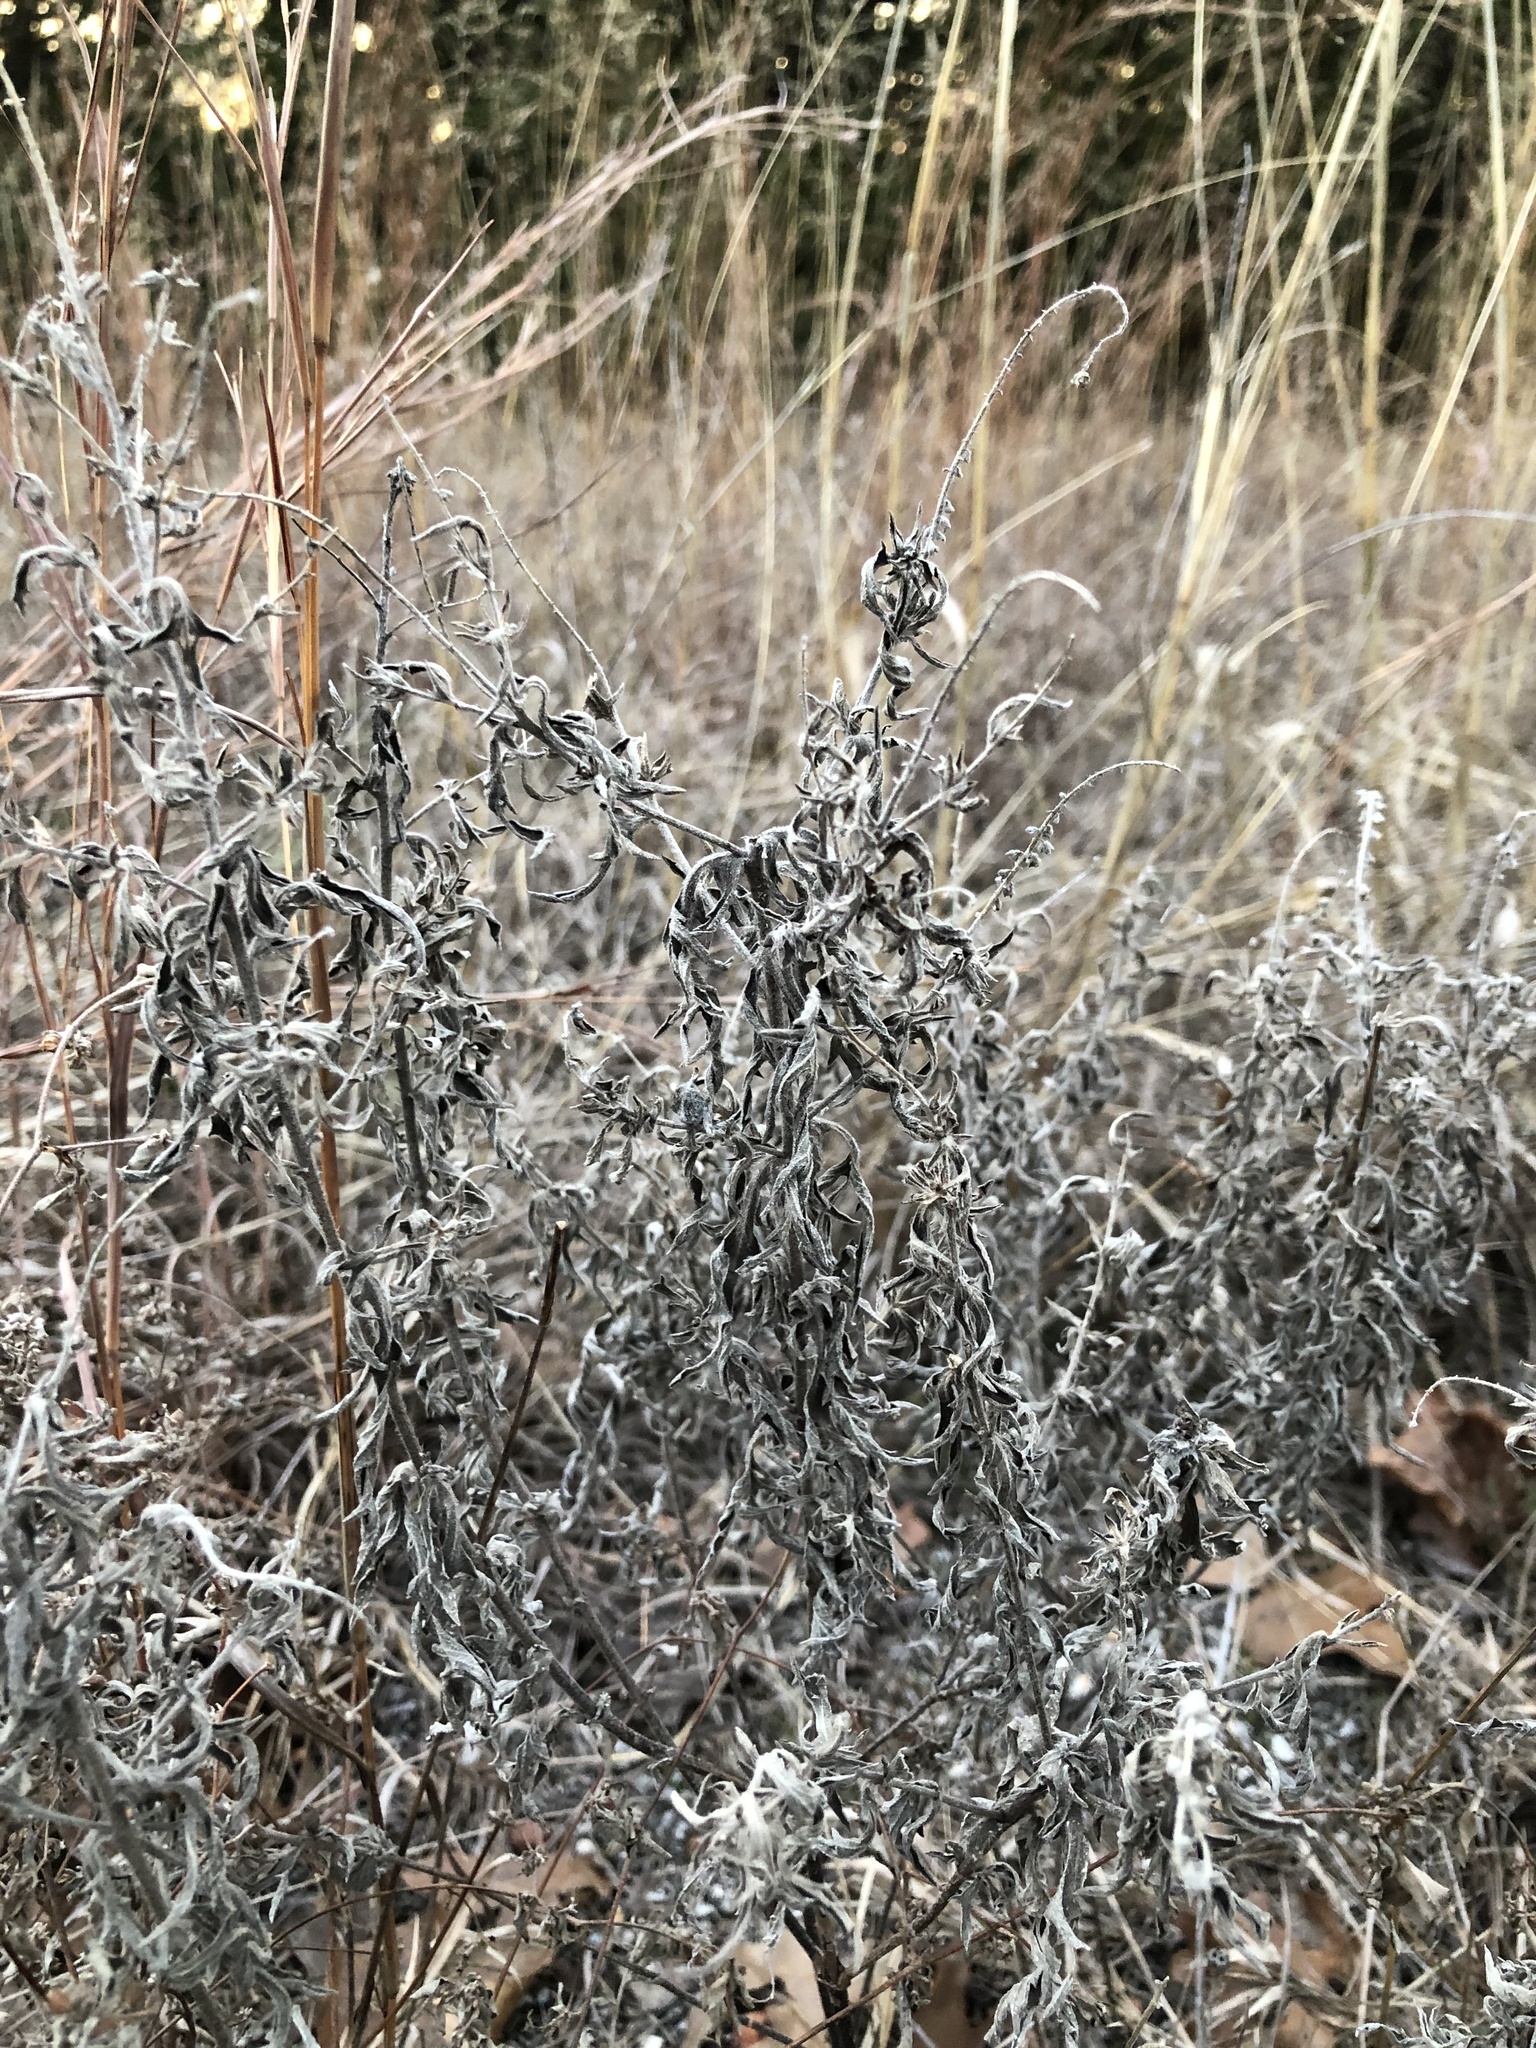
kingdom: Plantae
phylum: Tracheophyta
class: Magnoliopsida
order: Asterales
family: Asteraceae
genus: Artemisia
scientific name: Artemisia ludoviciana
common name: Western mugwort
